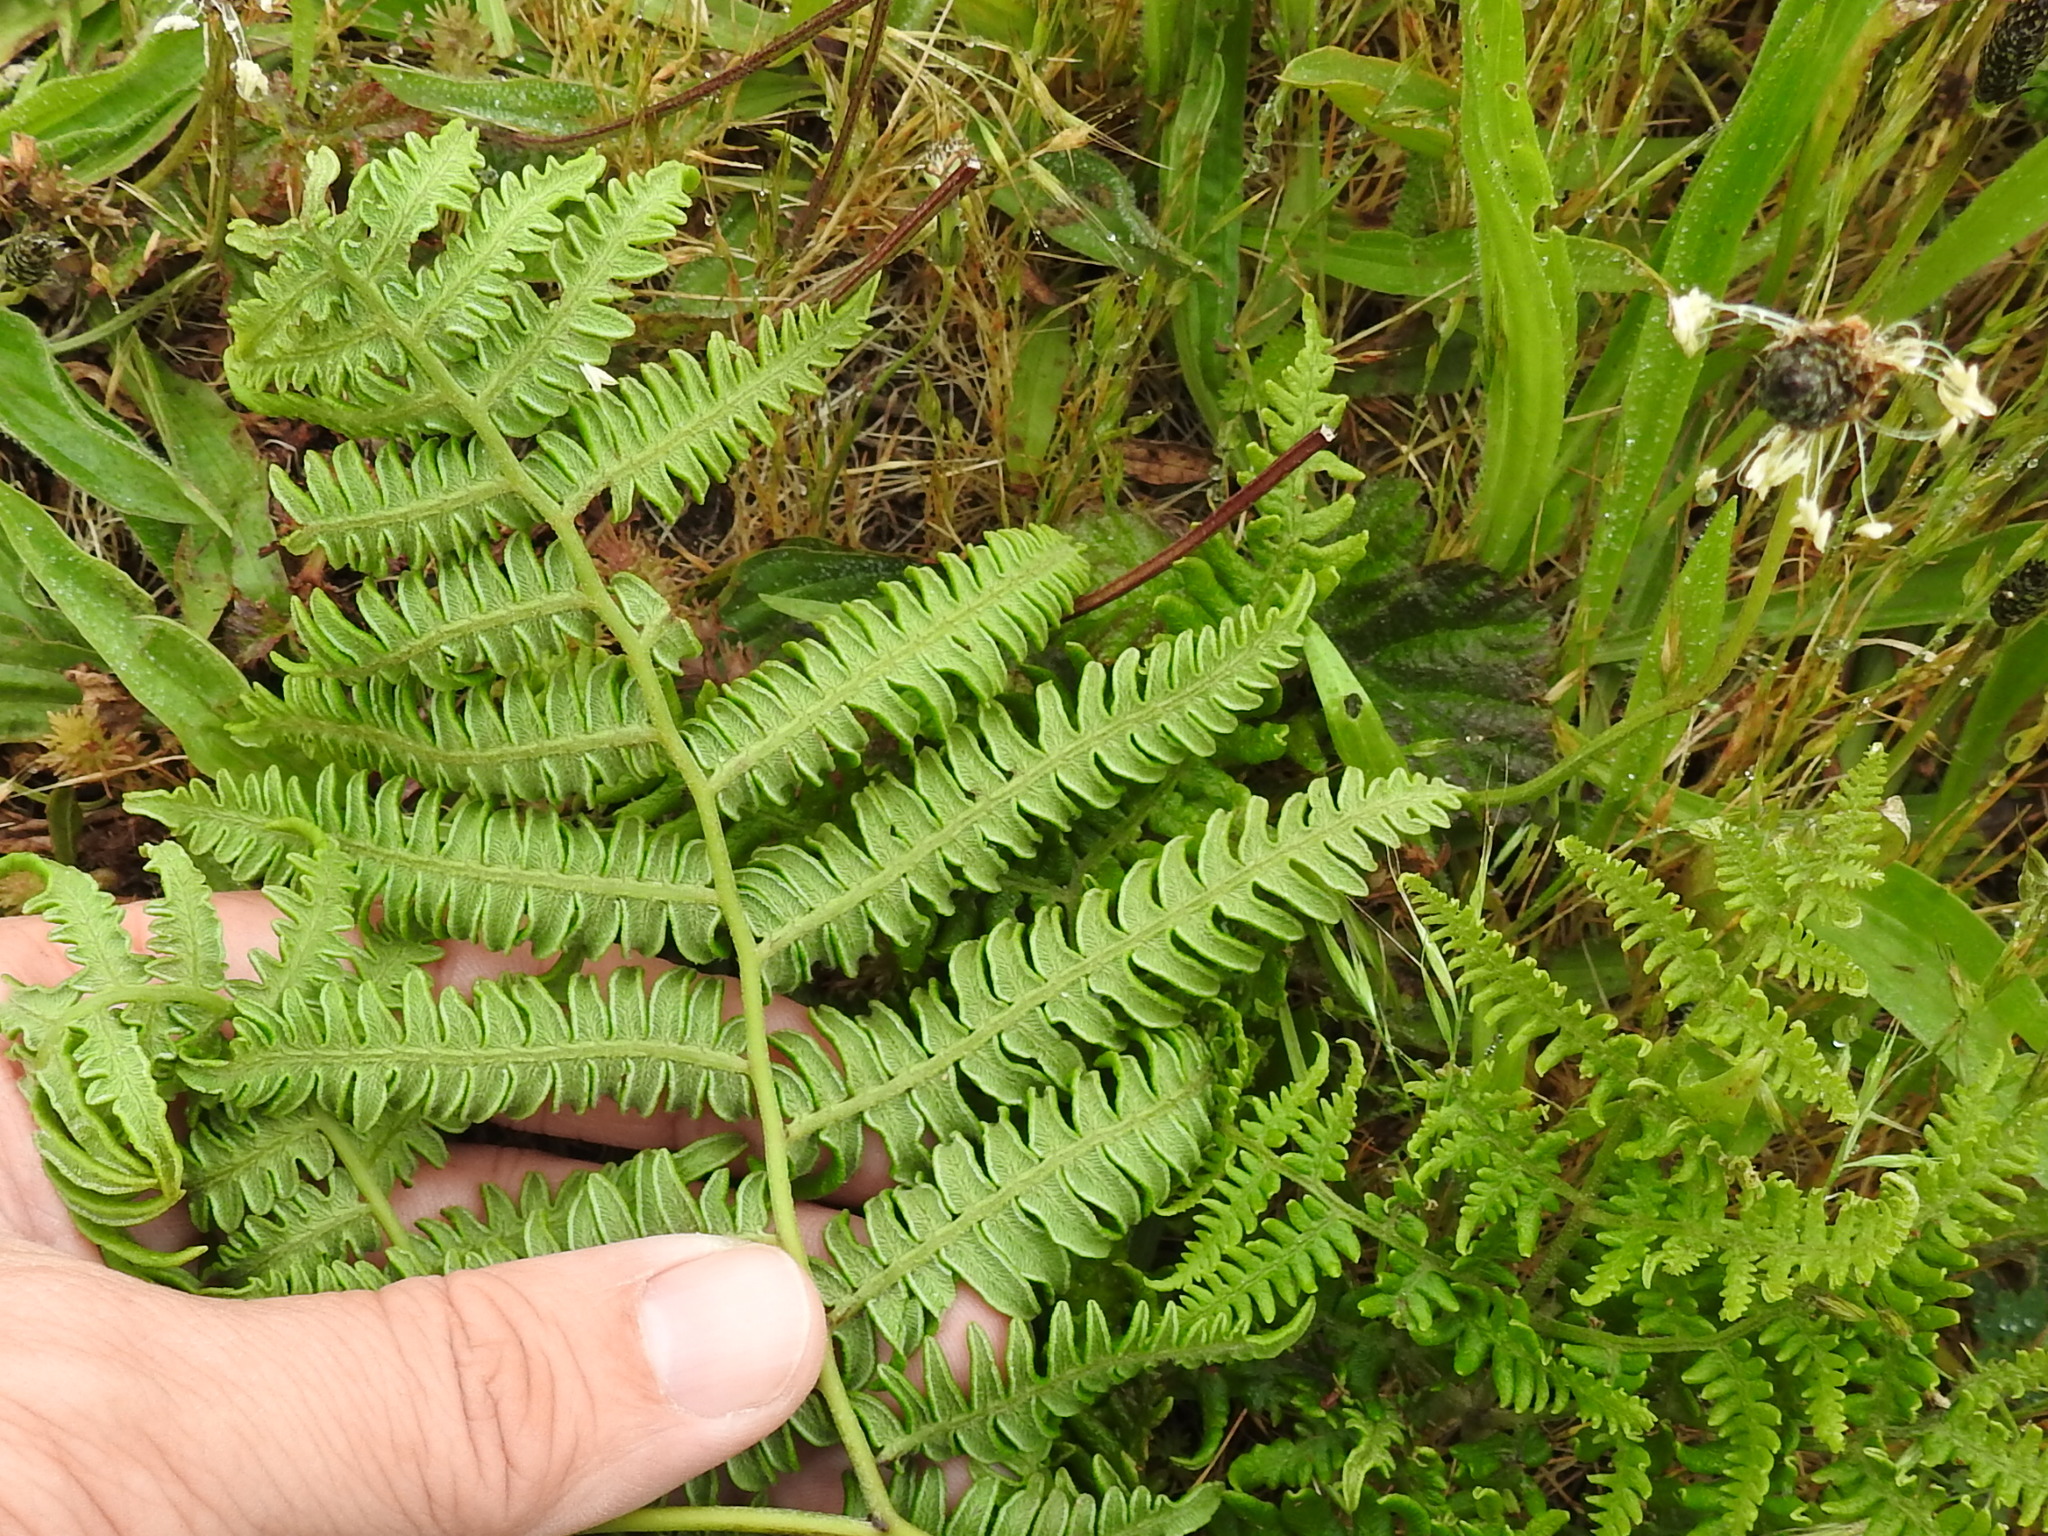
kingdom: Plantae
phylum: Tracheophyta
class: Polypodiopsida
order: Polypodiales
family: Dennstaedtiaceae
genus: Pteridium
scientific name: Pteridium aquilinum
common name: Bracken
